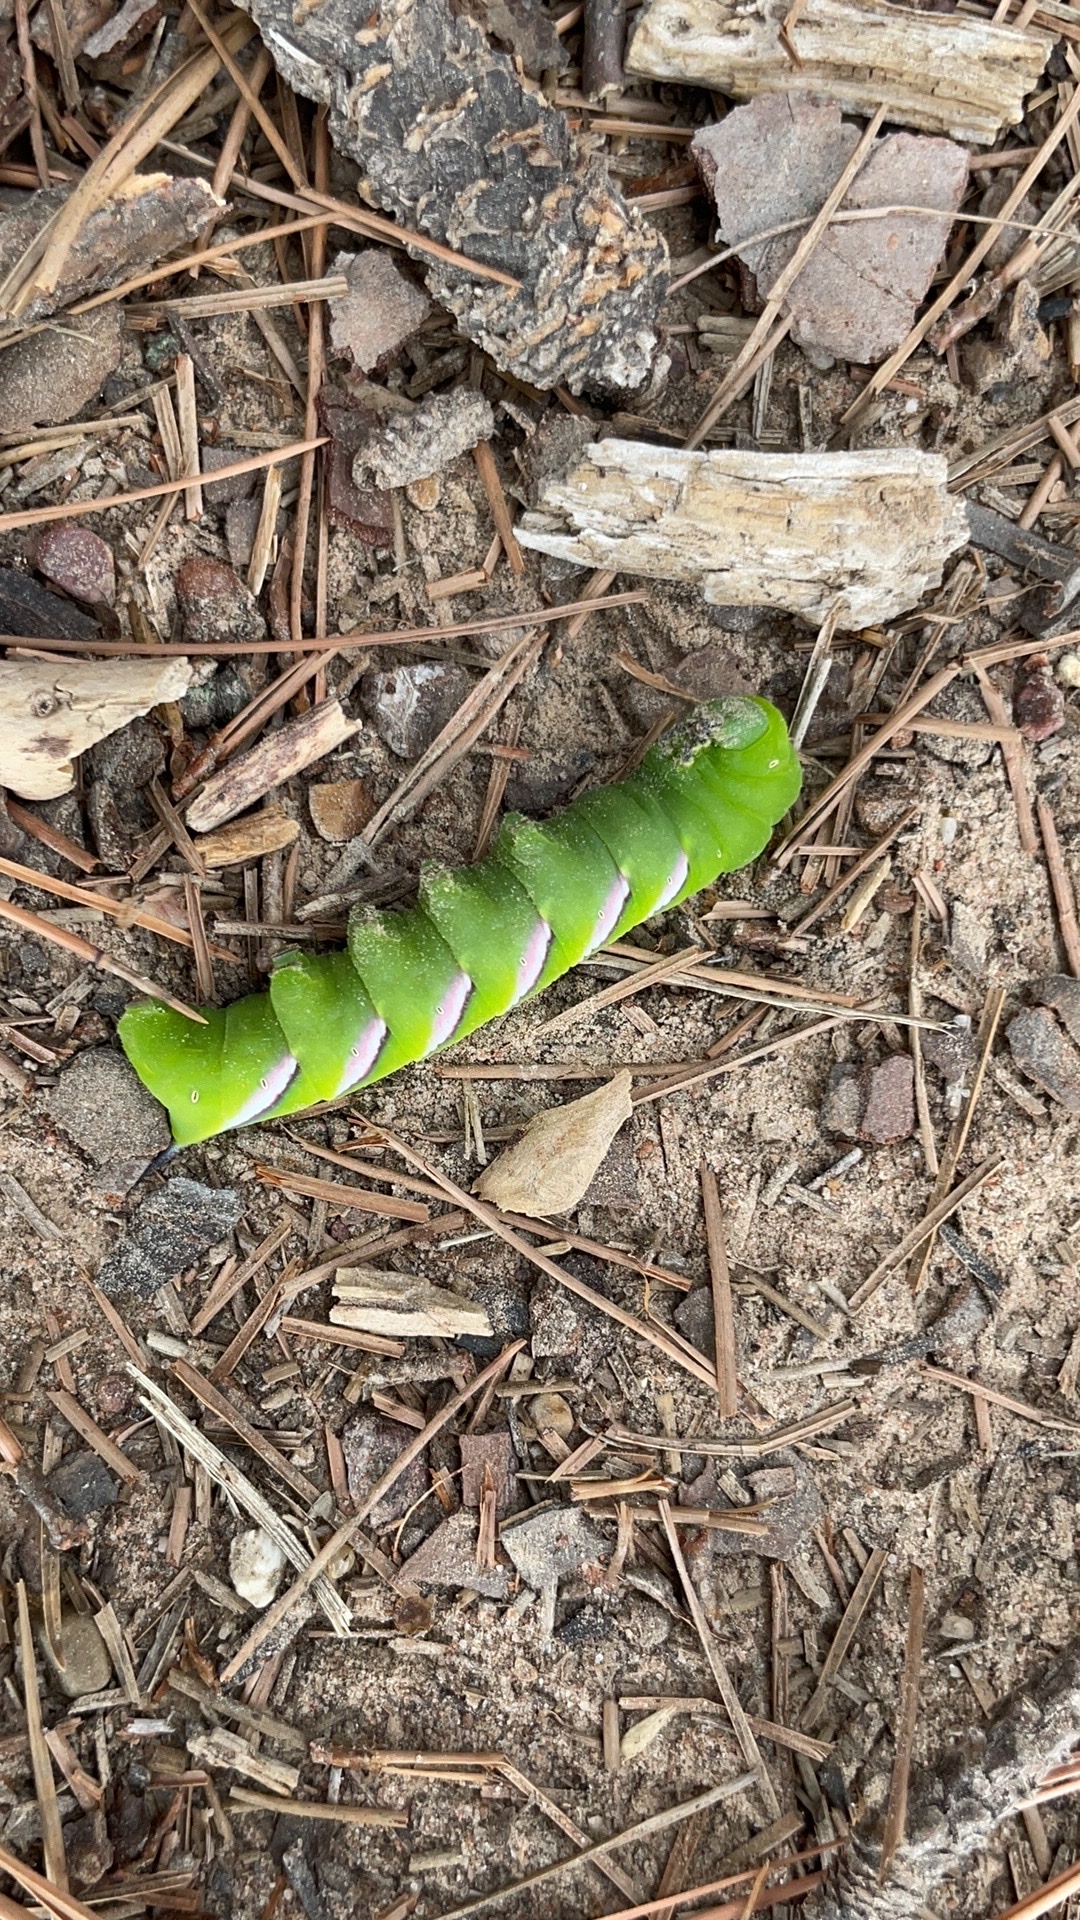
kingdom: Animalia
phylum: Arthropoda
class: Insecta
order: Lepidoptera
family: Sphingidae
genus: Dolba
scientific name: Dolba hyloeus
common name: Pawpaw sphinx
